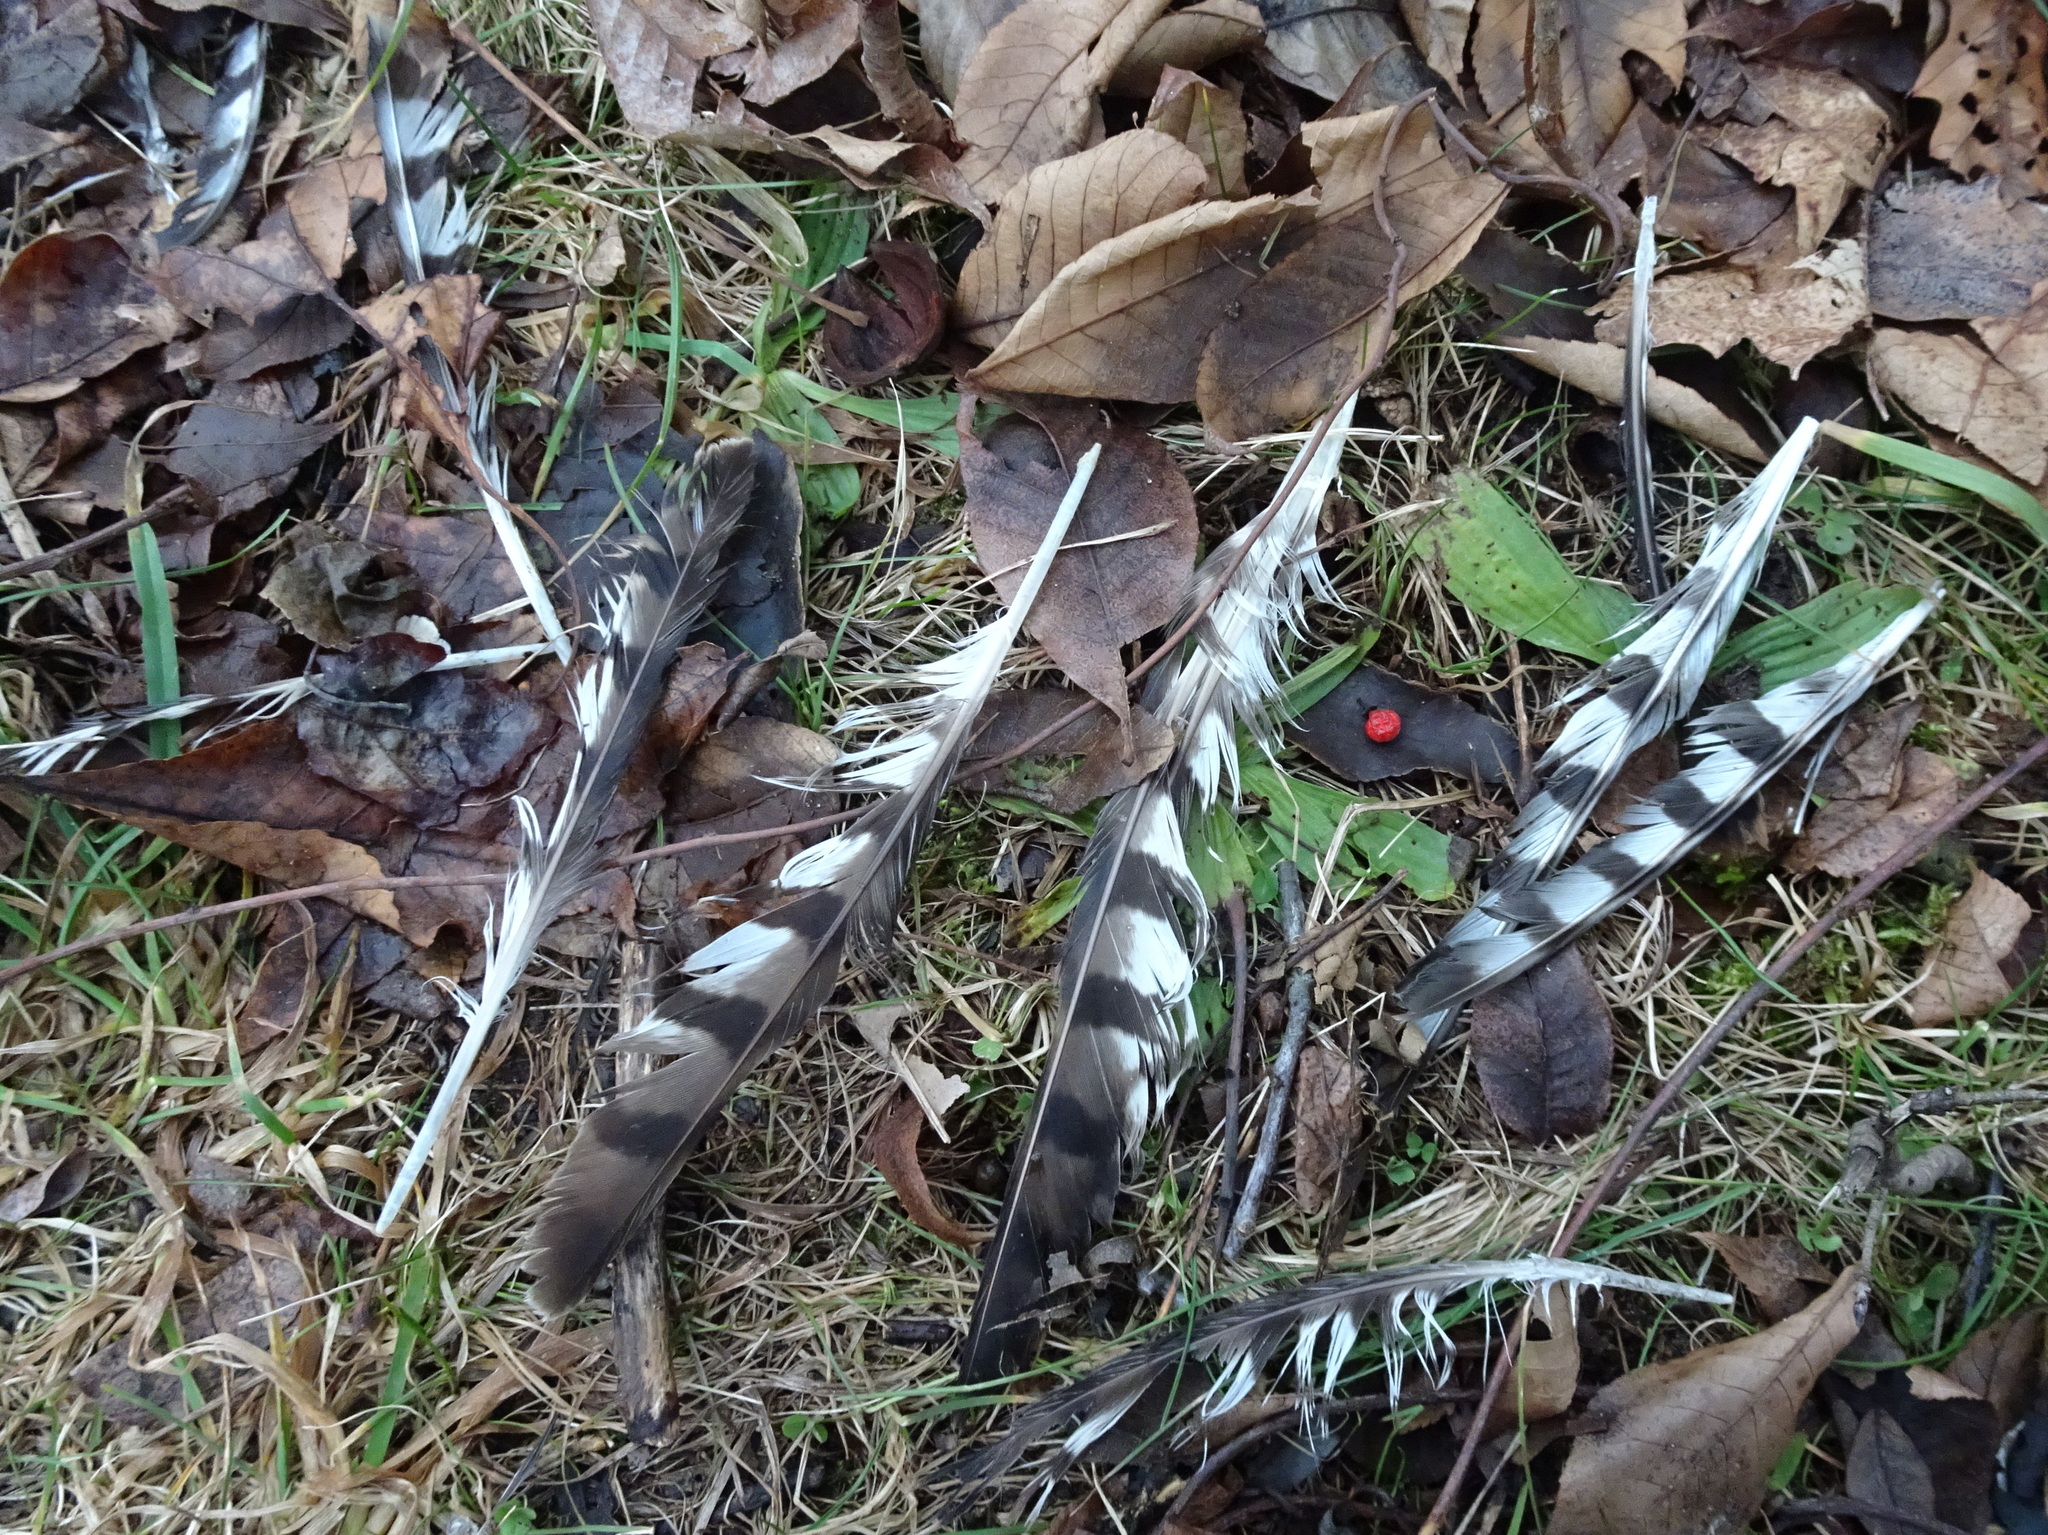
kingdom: Animalia
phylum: Chordata
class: Aves
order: Accipitriformes
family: Accipitridae
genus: Accipiter
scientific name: Accipiter striatus
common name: Sharp-shinned hawk
